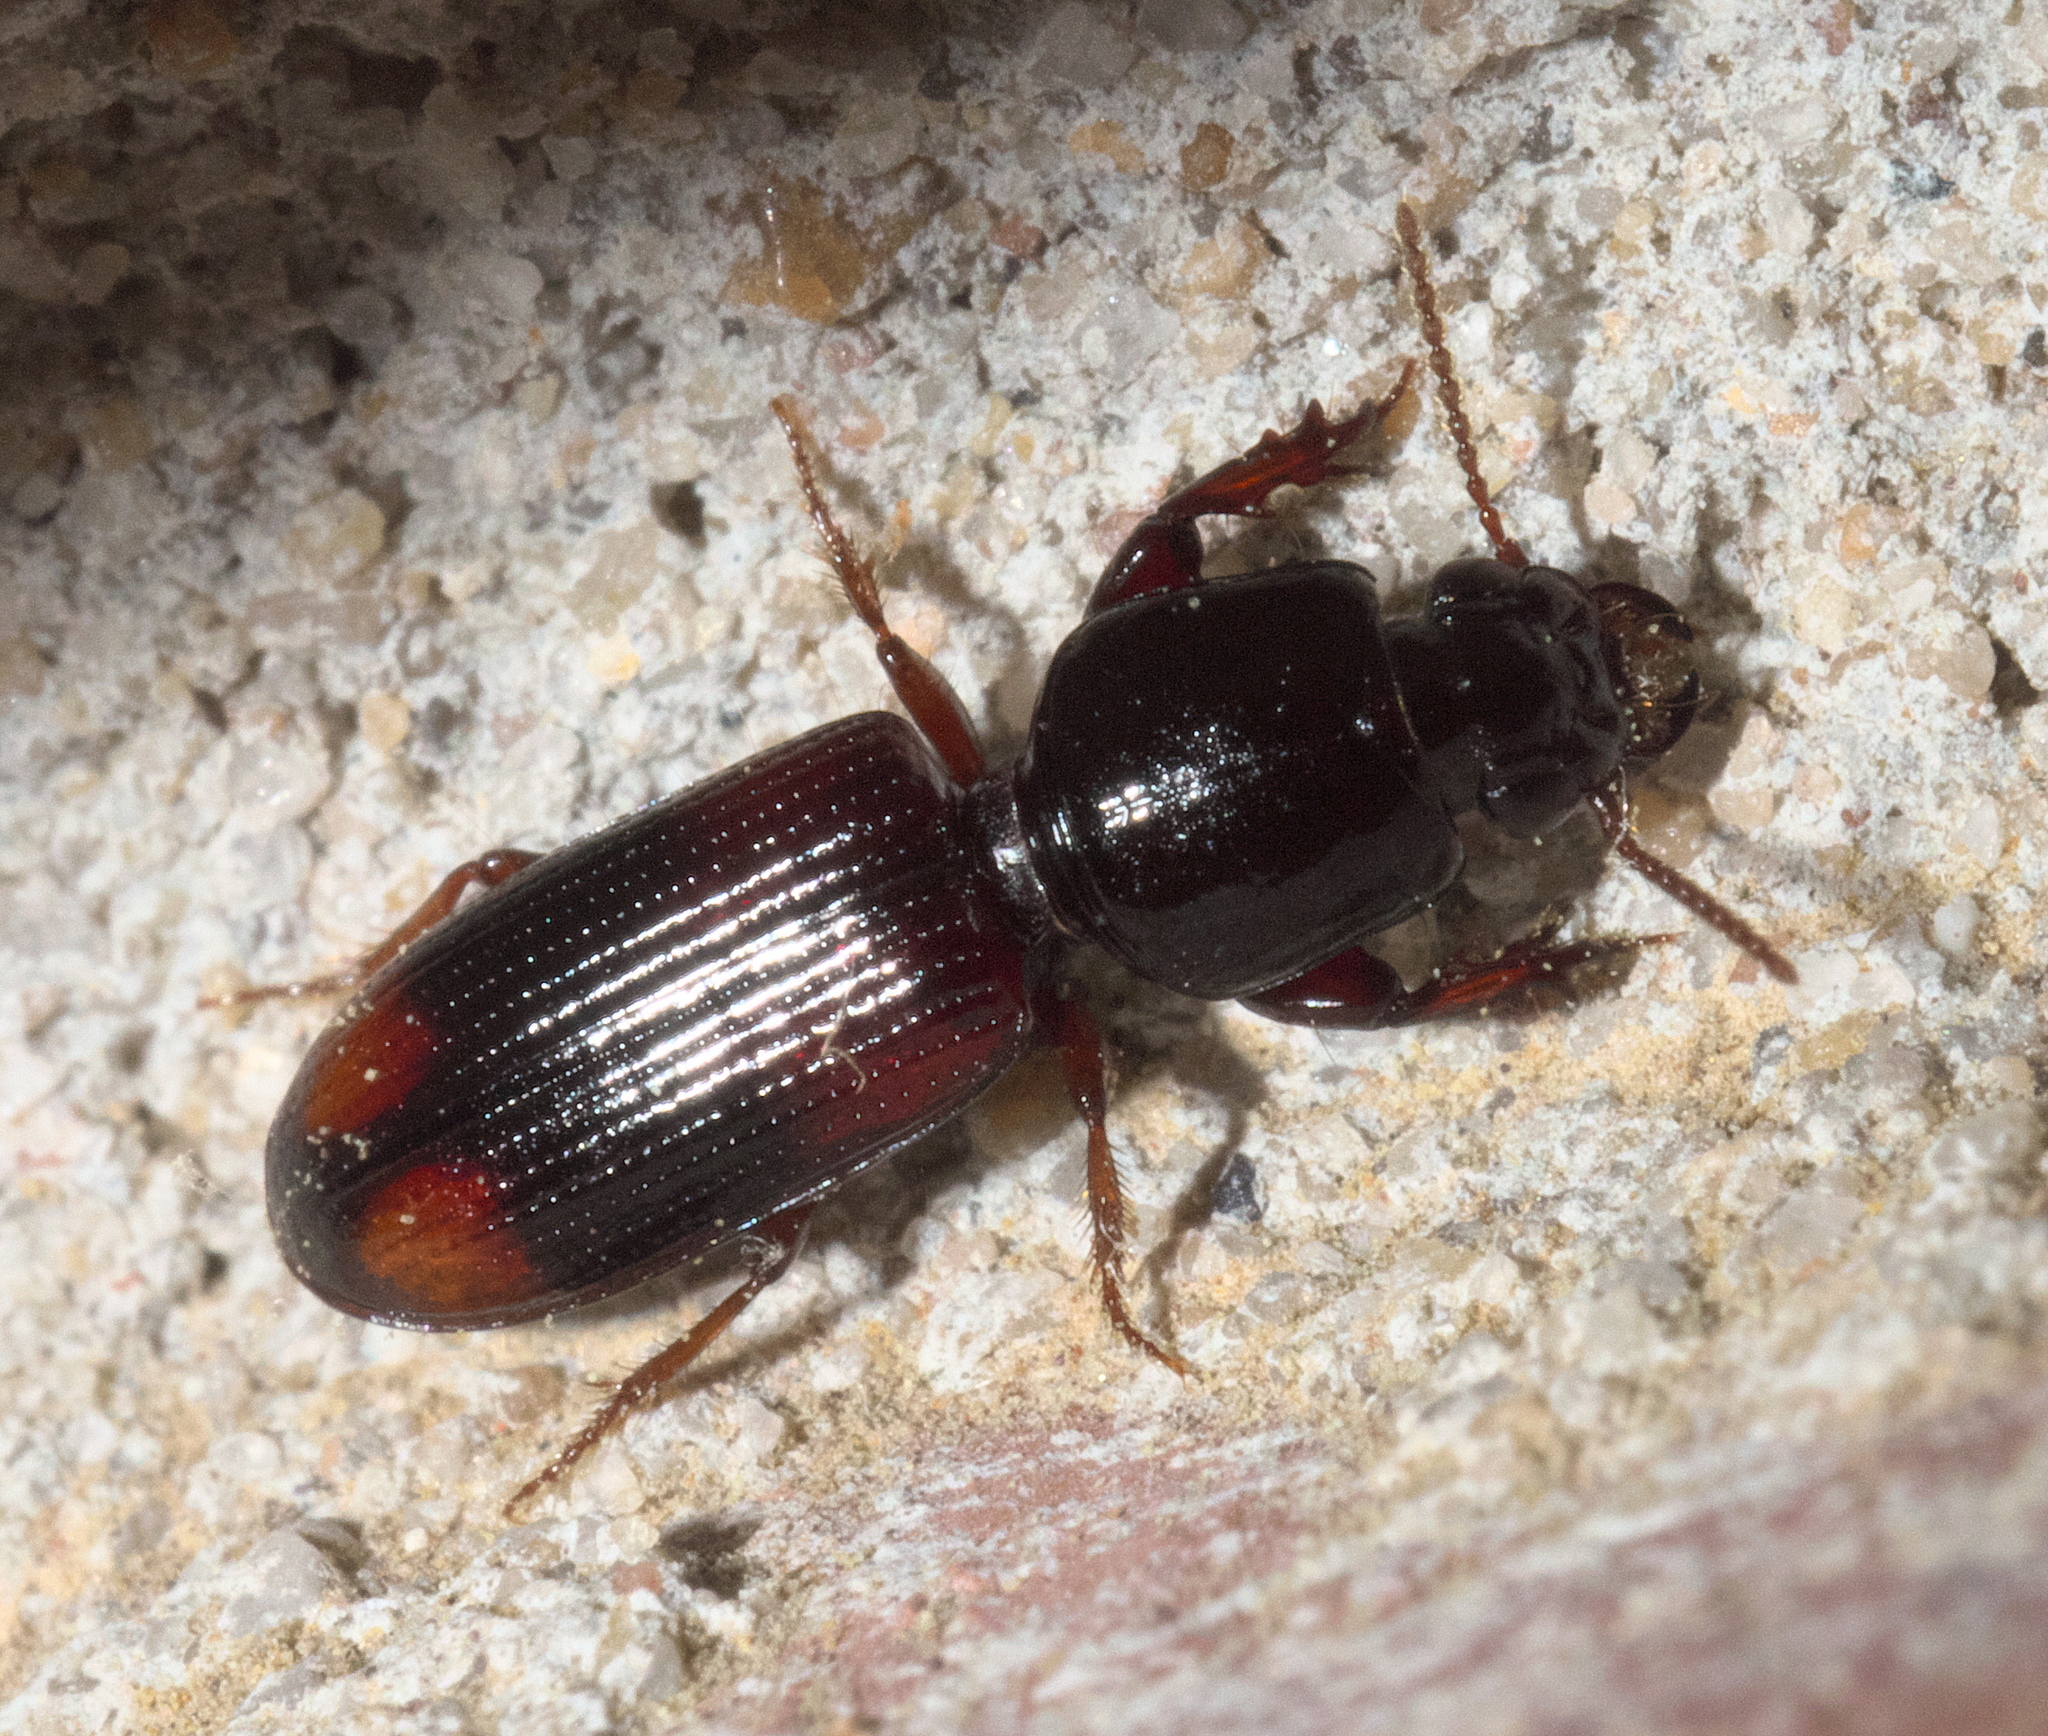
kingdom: Animalia
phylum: Arthropoda
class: Insecta
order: Coleoptera
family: Carabidae
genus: Clivina
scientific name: Clivina bipustulata
